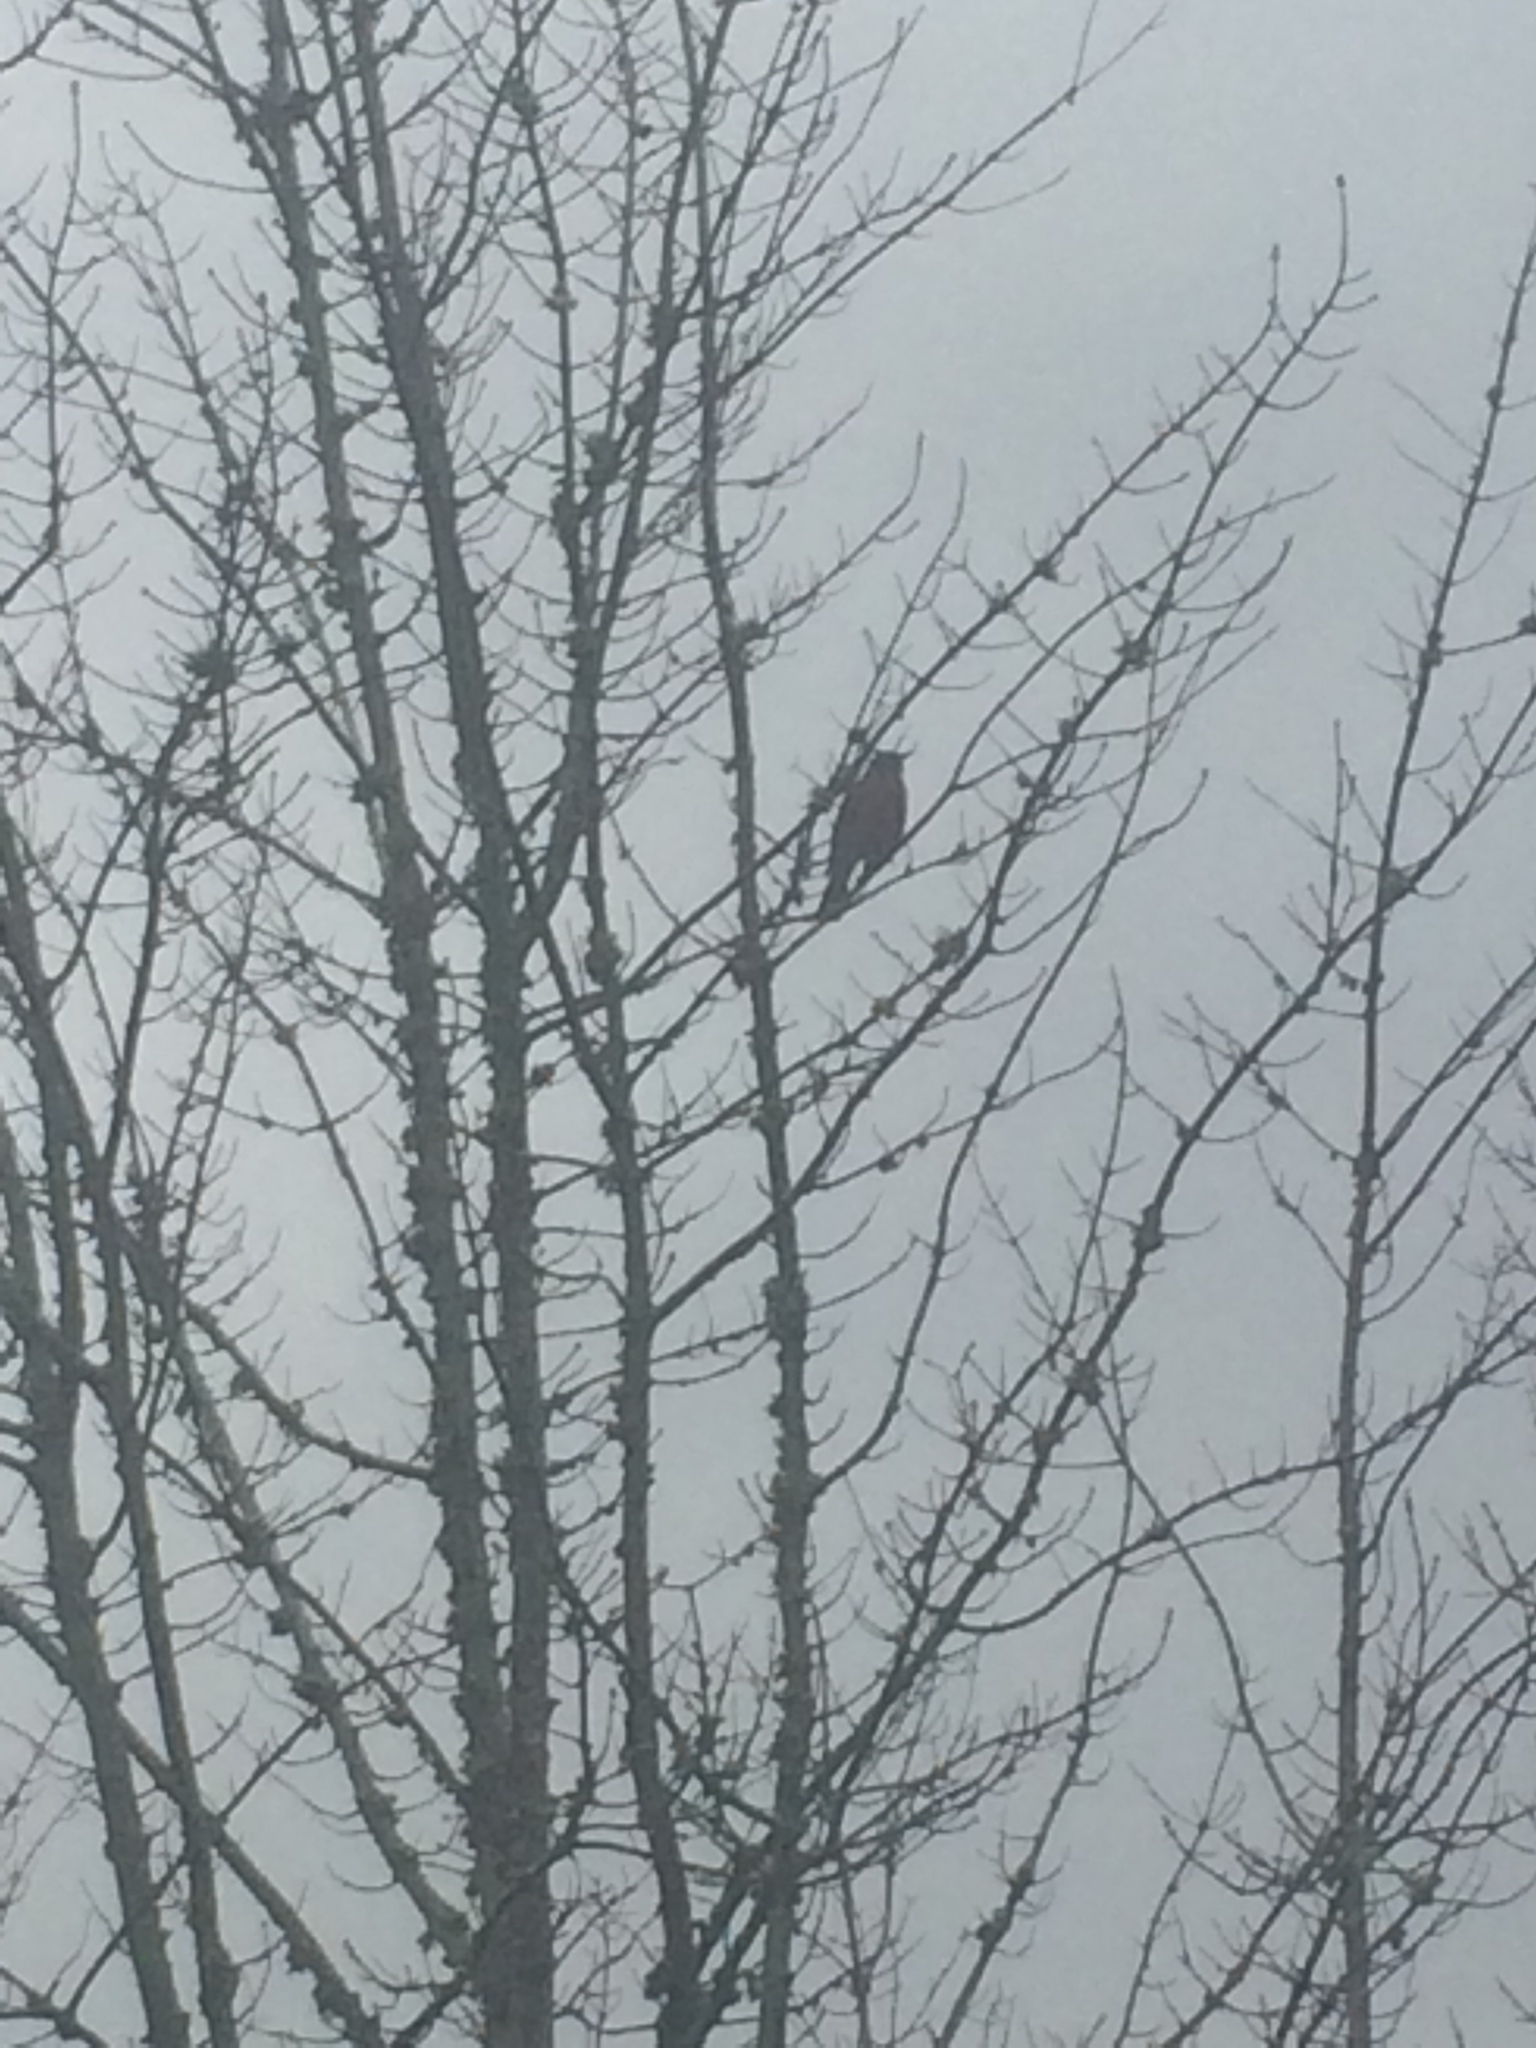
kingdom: Animalia
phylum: Chordata
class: Aves
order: Passeriformes
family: Turdidae
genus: Turdus
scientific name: Turdus migratorius
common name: American robin
